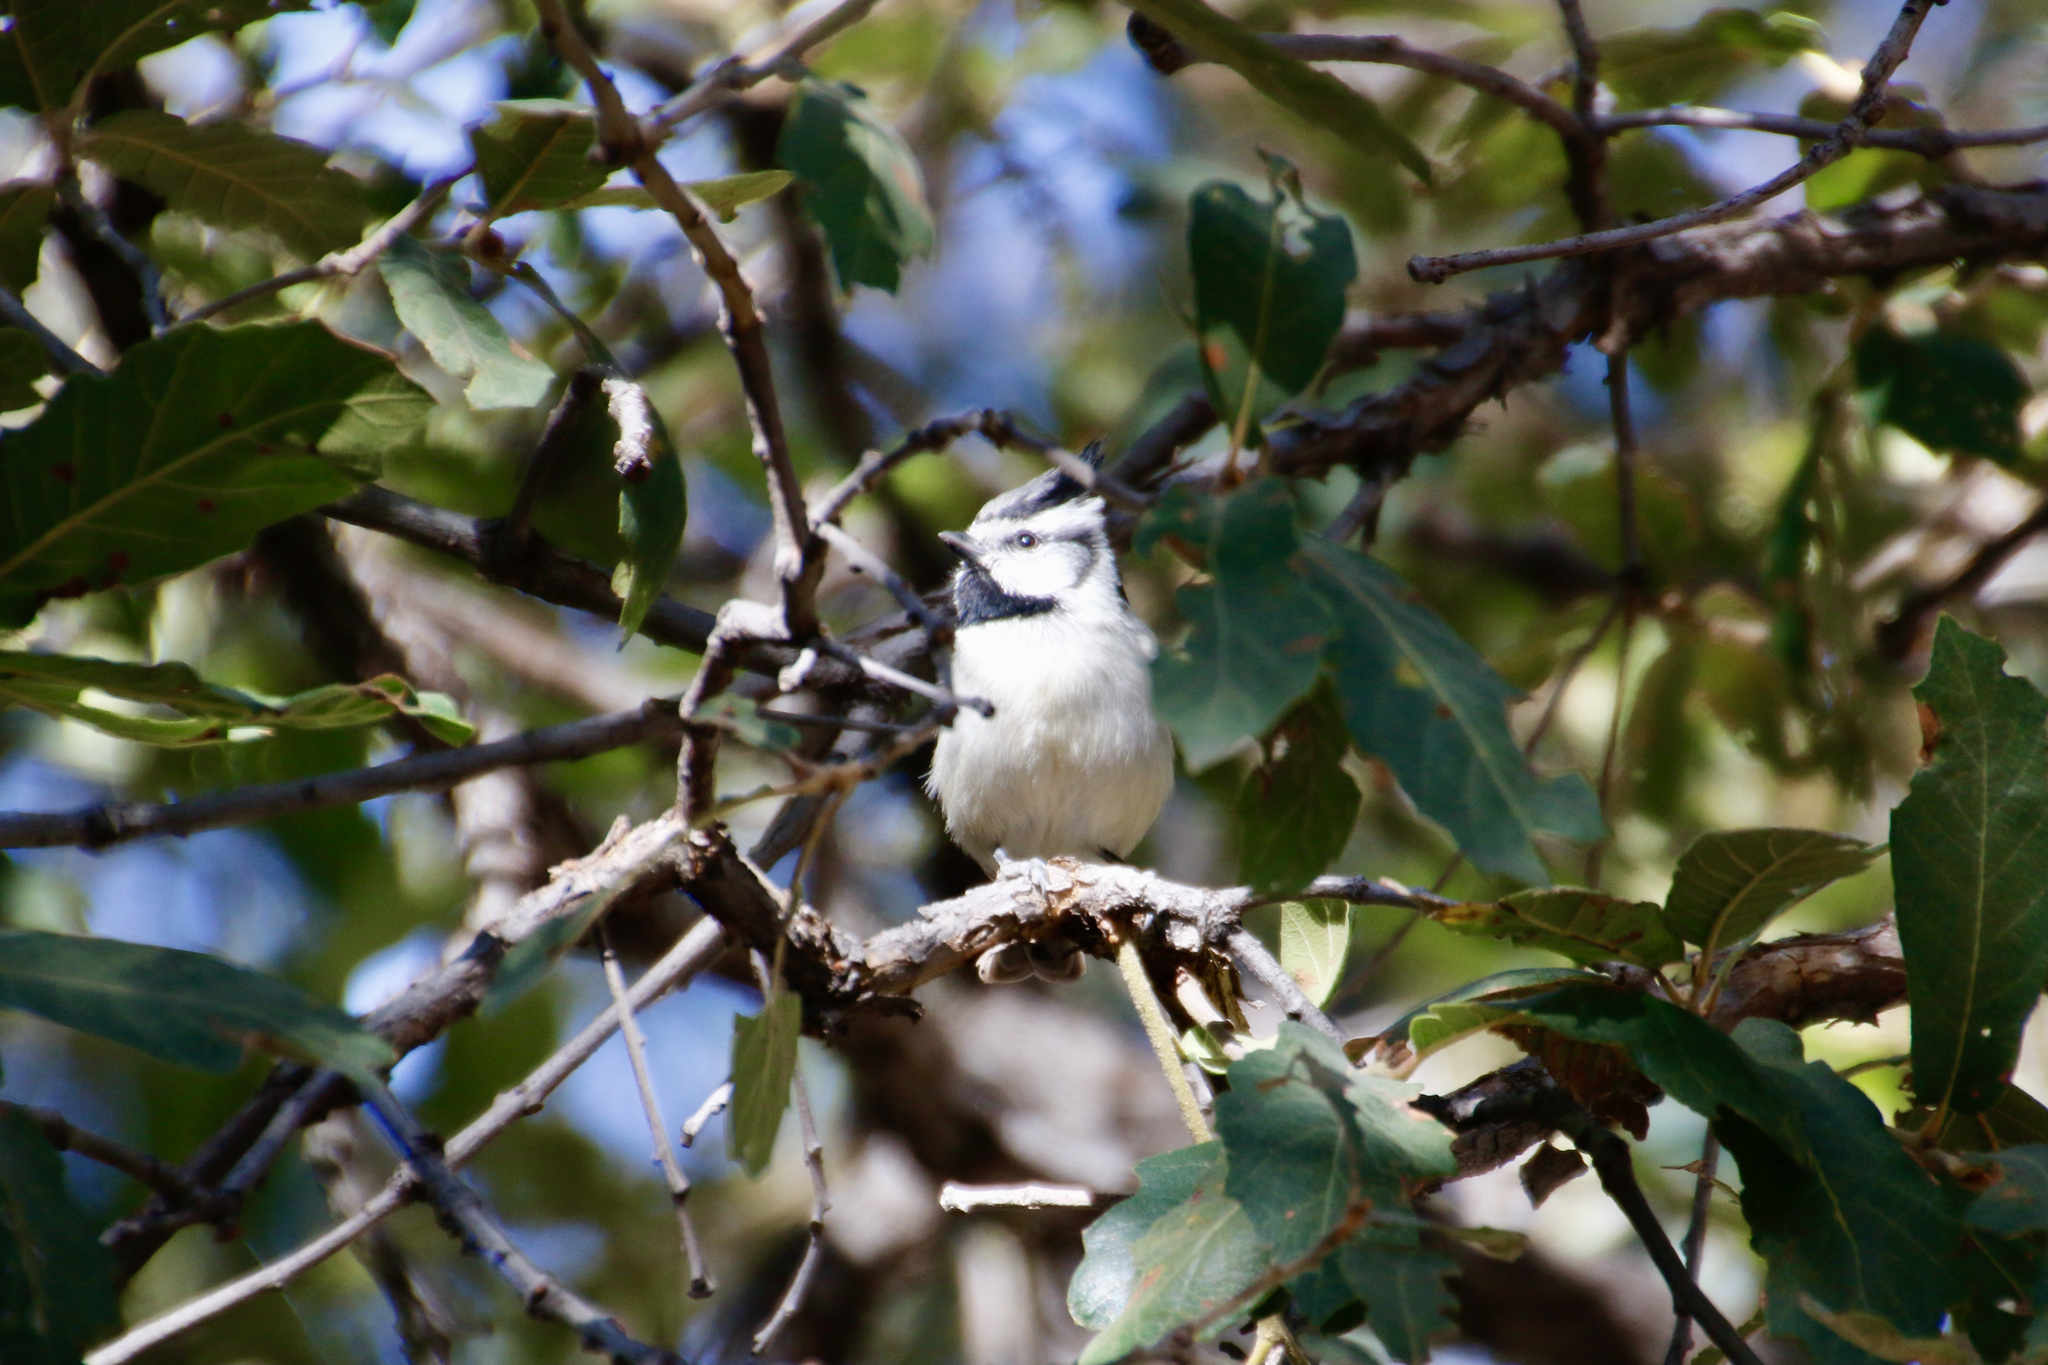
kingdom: Animalia
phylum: Chordata
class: Aves
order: Passeriformes
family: Paridae
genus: Baeolophus
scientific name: Baeolophus wollweberi
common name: Bridled titmouse
